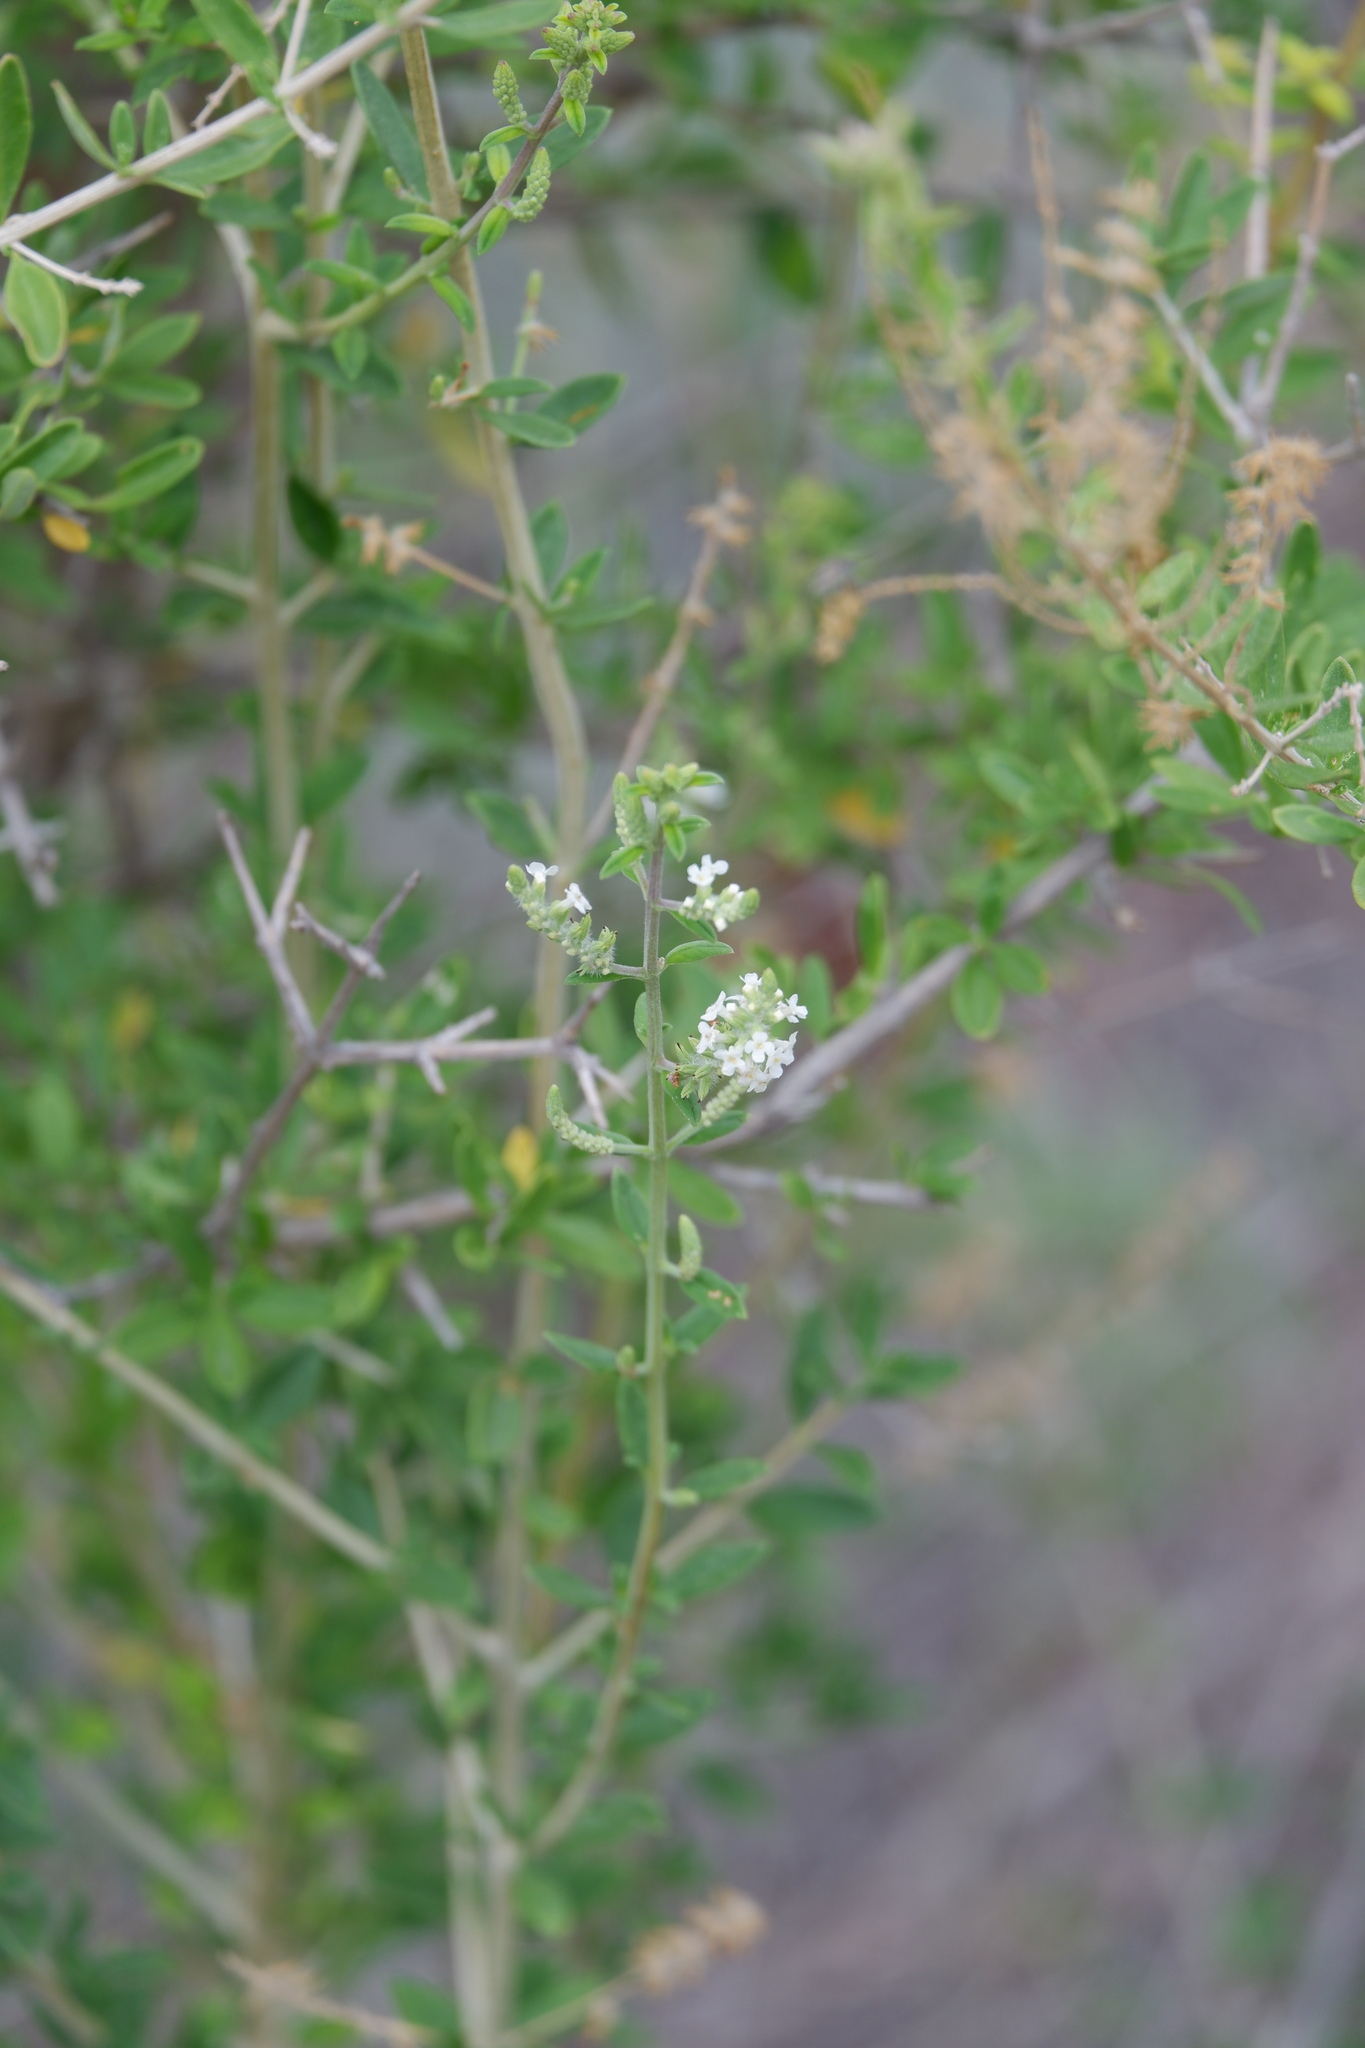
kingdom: Plantae
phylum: Tracheophyta
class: Magnoliopsida
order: Lamiales
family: Verbenaceae
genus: Aloysia
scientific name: Aloysia gratissima
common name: Common bee-brush
